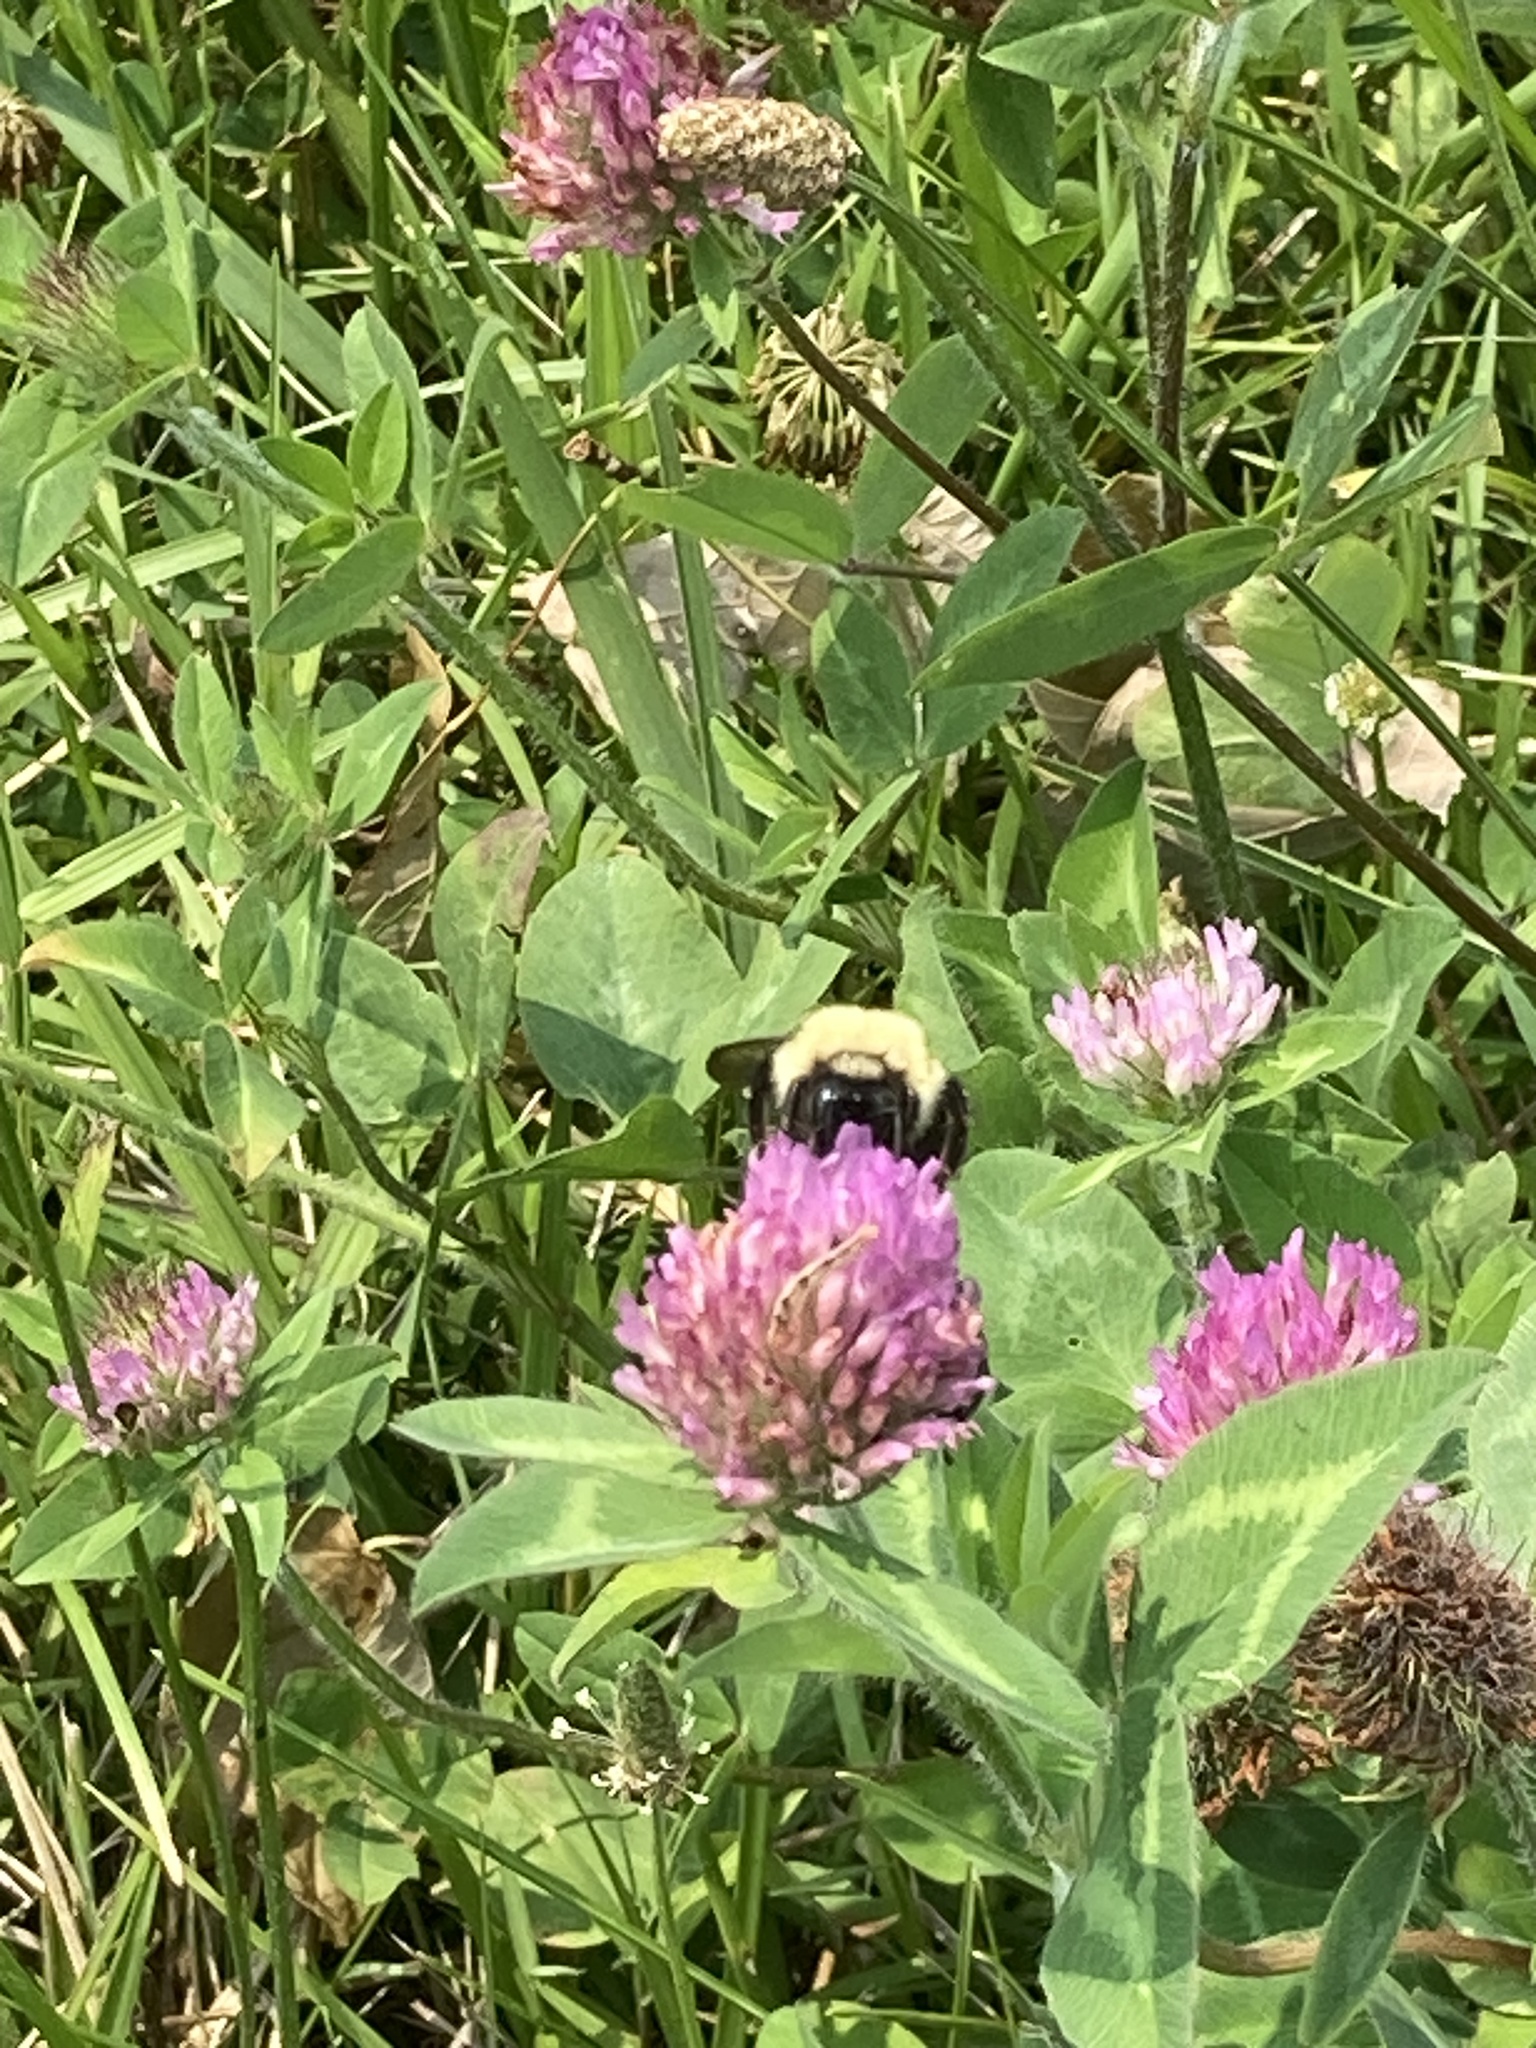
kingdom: Animalia
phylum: Arthropoda
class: Insecta
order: Hymenoptera
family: Apidae
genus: Bombus
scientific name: Bombus bimaculatus
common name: Two-spotted bumble bee
